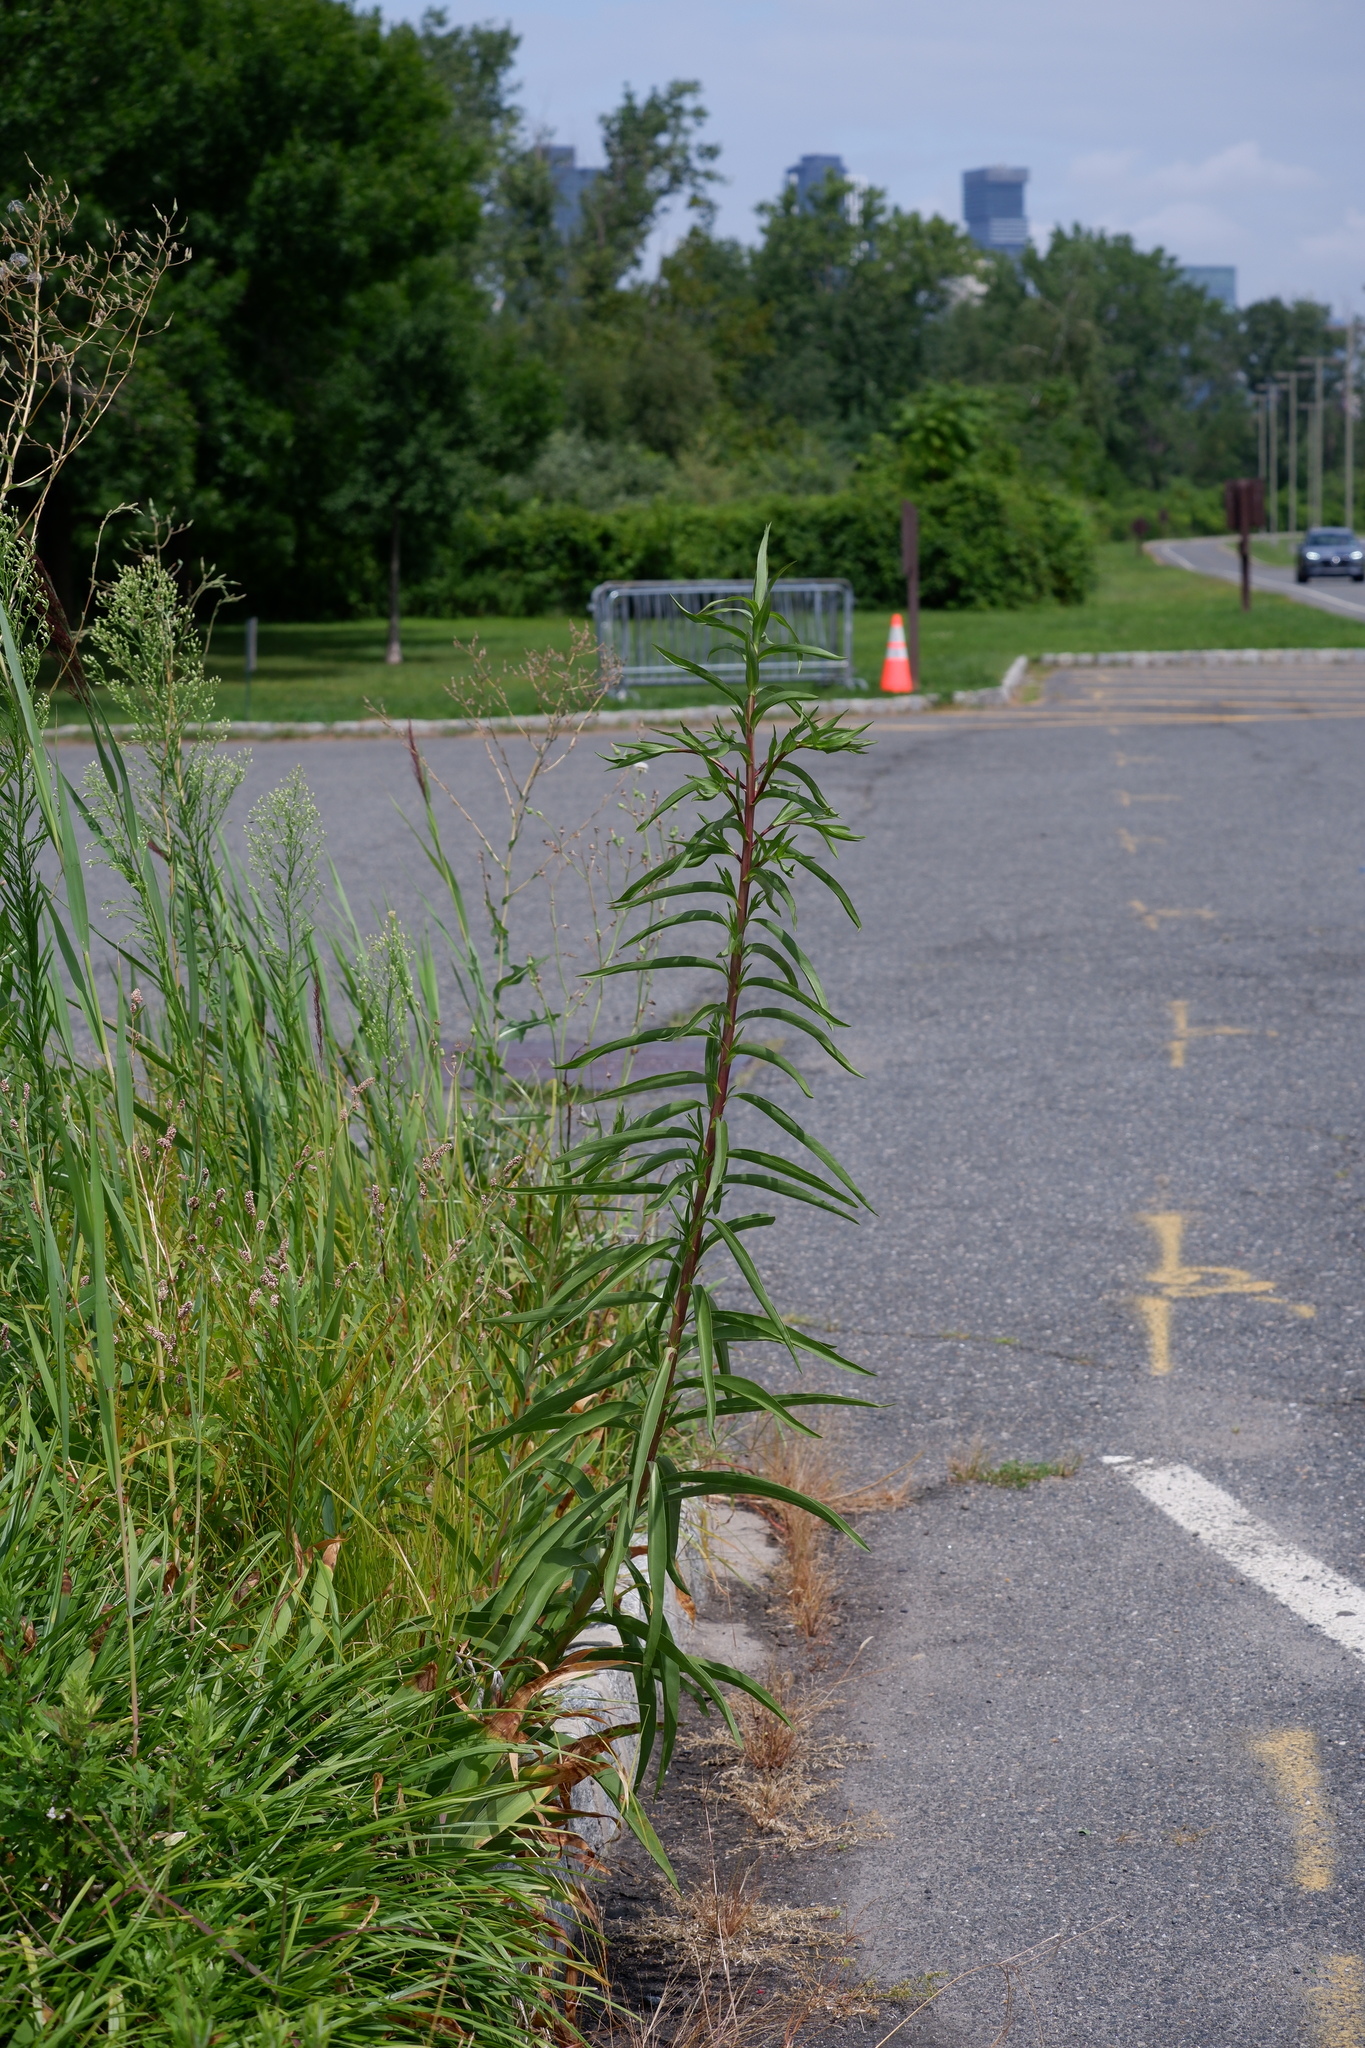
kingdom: Plantae
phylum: Tracheophyta
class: Magnoliopsida
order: Asterales
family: Asteraceae
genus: Solidago
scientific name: Solidago sempervirens
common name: Salt-marsh goldenrod
